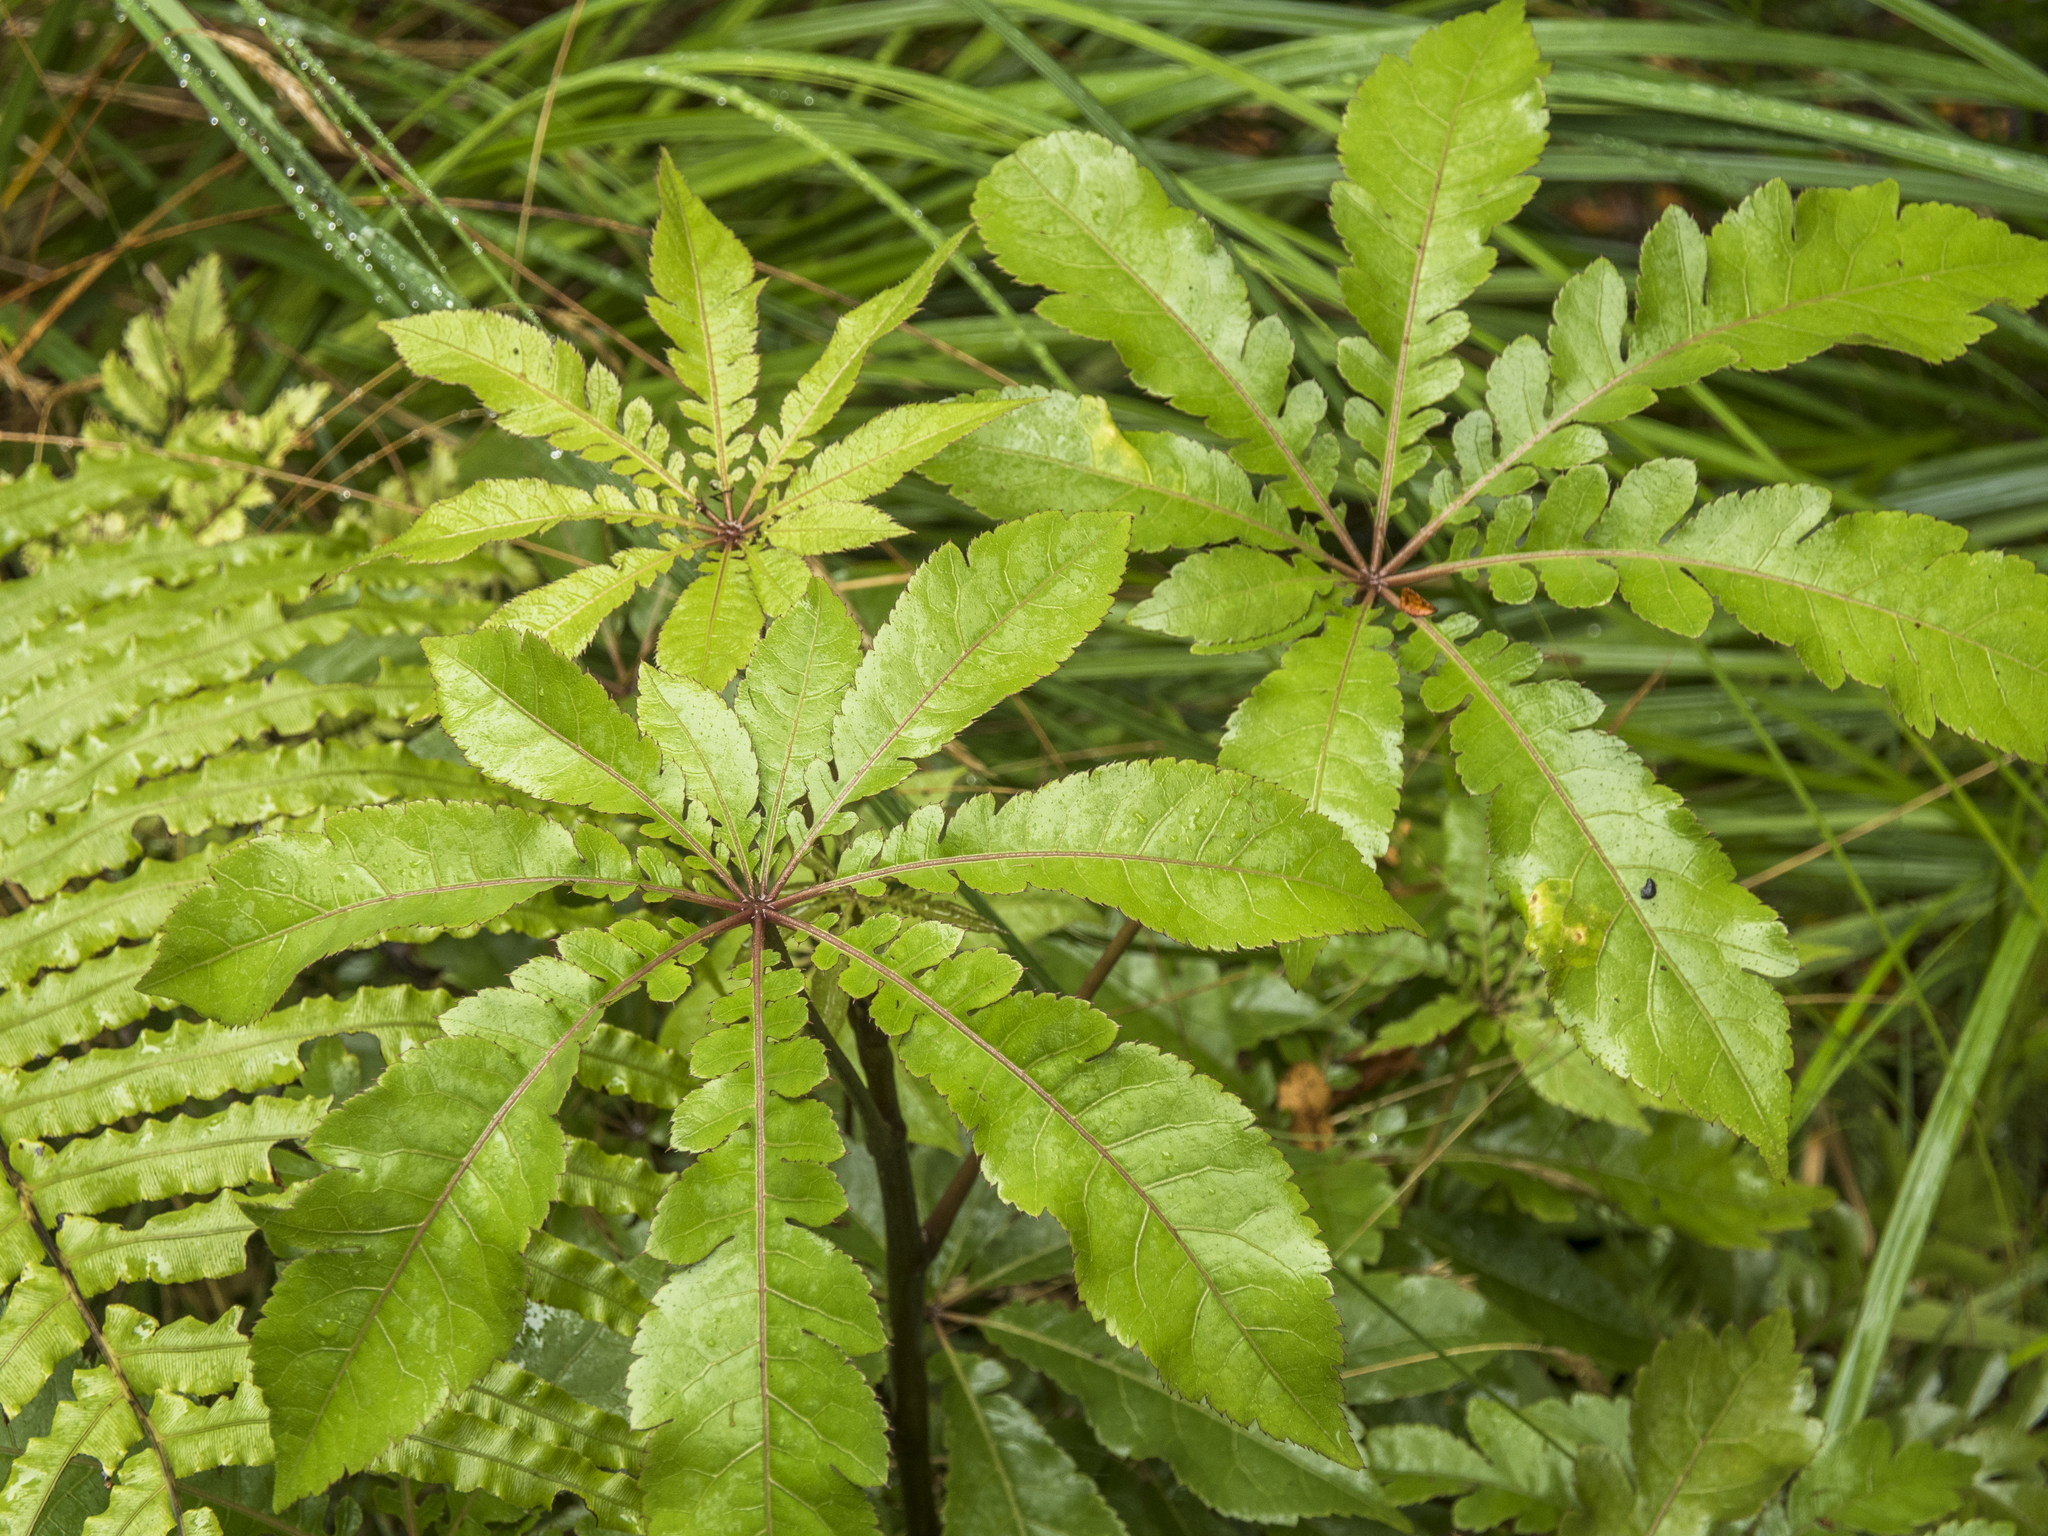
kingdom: Plantae
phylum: Tracheophyta
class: Magnoliopsida
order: Apiales
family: Araliaceae
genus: Schefflera
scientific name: Schefflera digitata
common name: Pate
